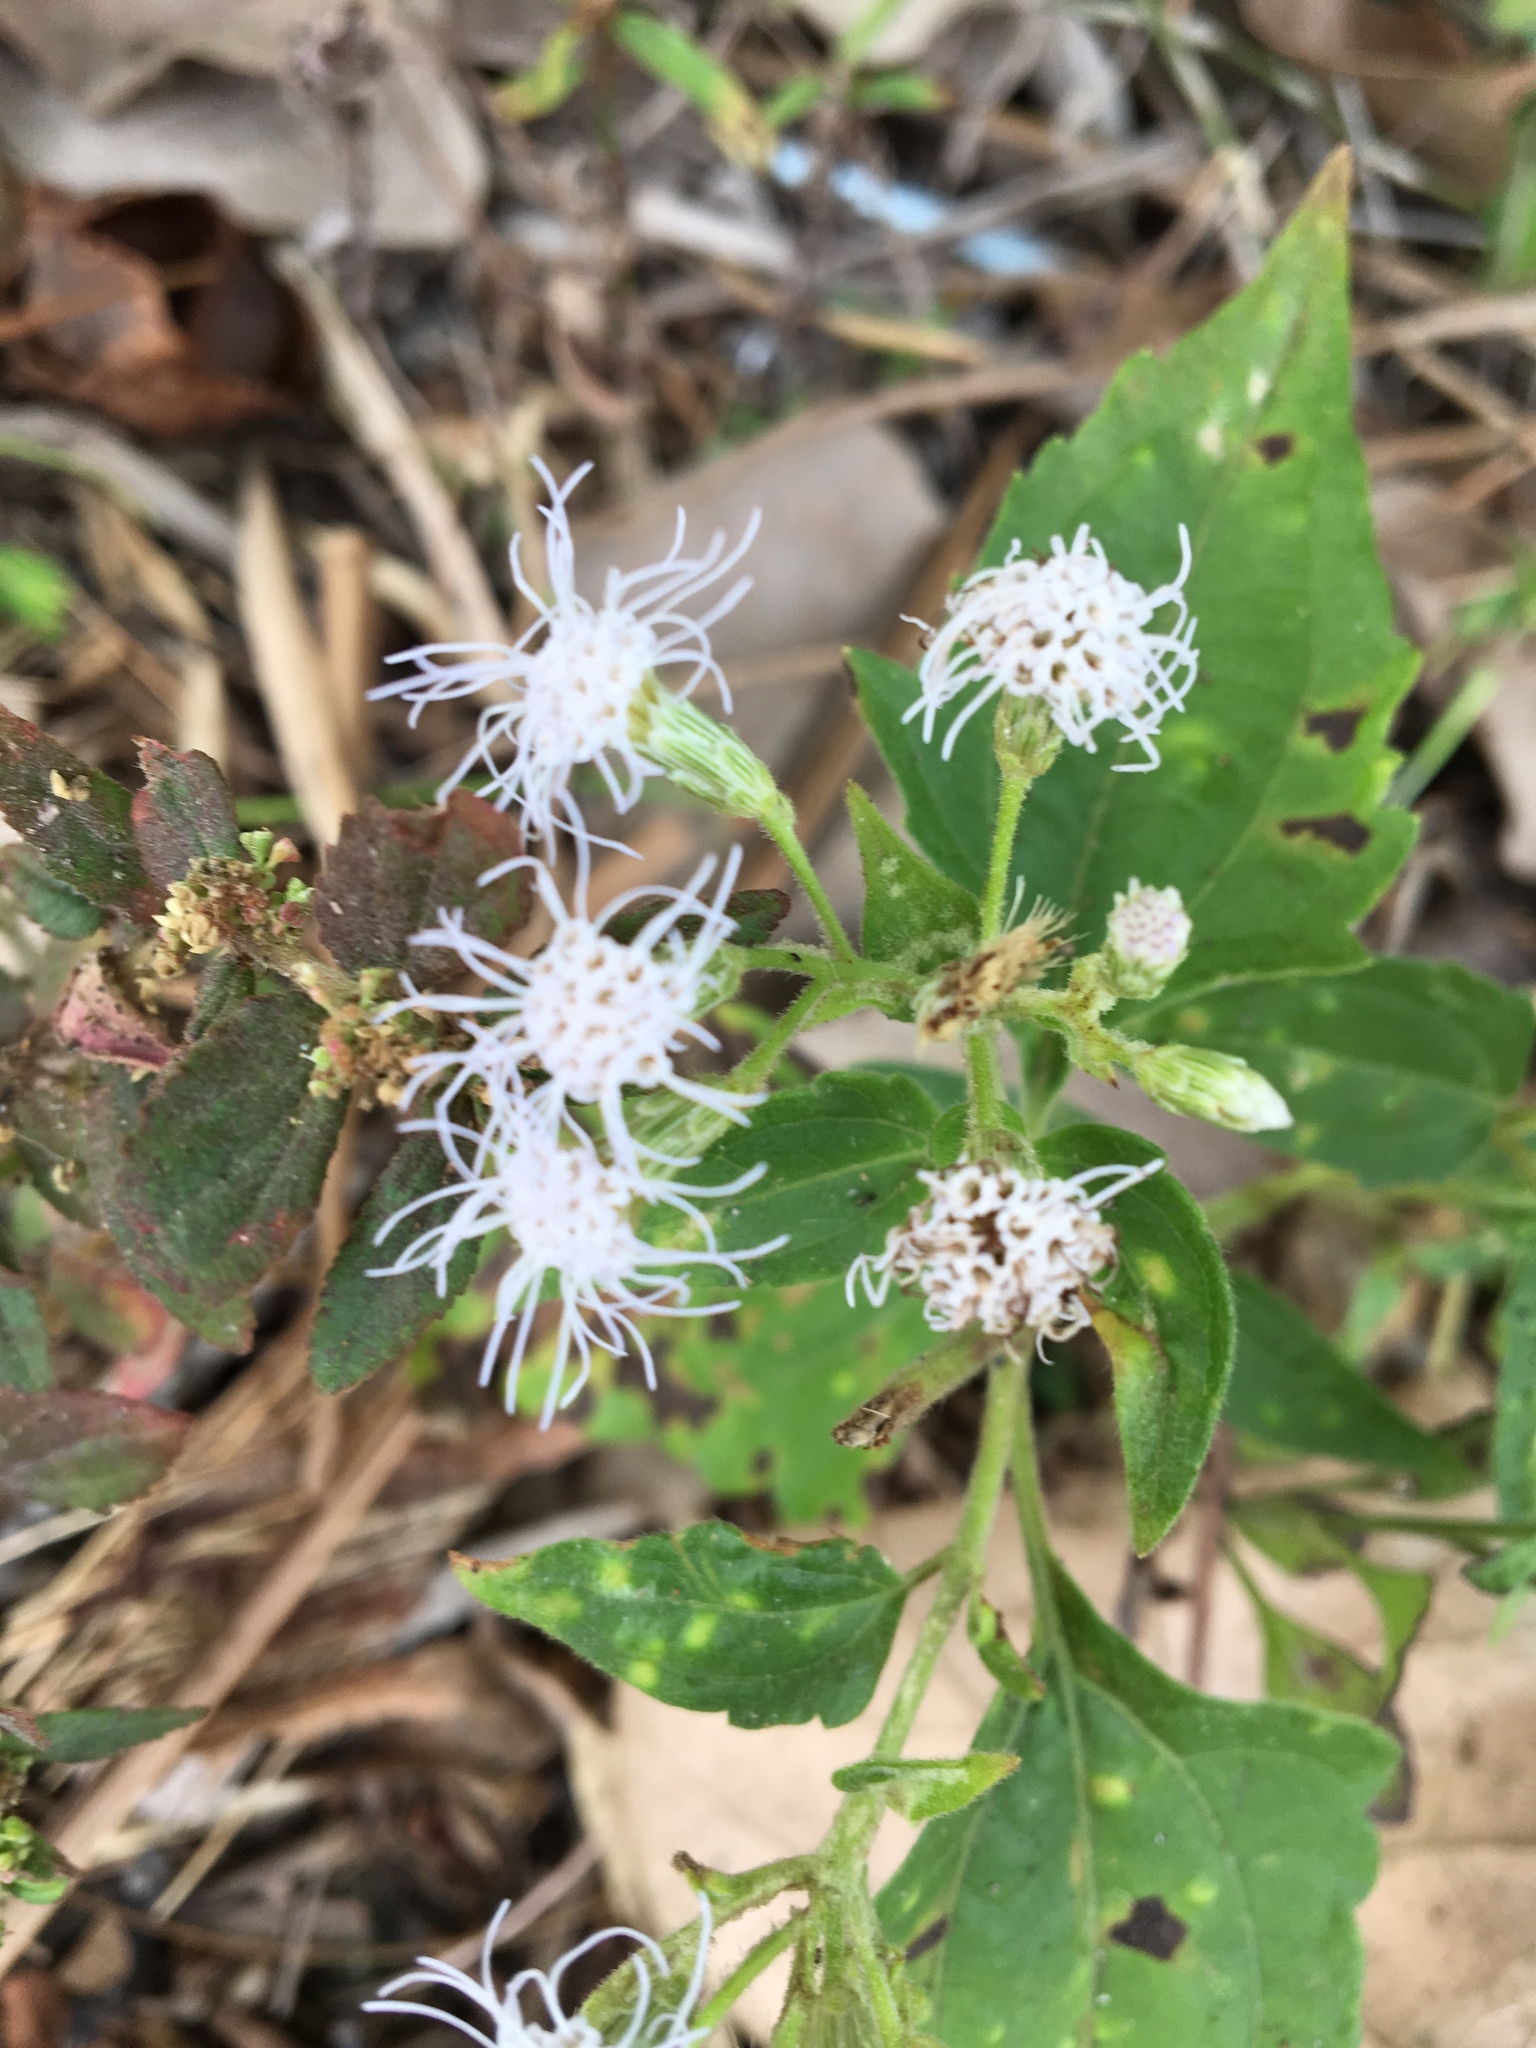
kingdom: Plantae
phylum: Tracheophyta
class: Magnoliopsida
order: Asterales
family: Asteraceae
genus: Chromolaena
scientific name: Chromolaena odorata
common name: Siamweed
